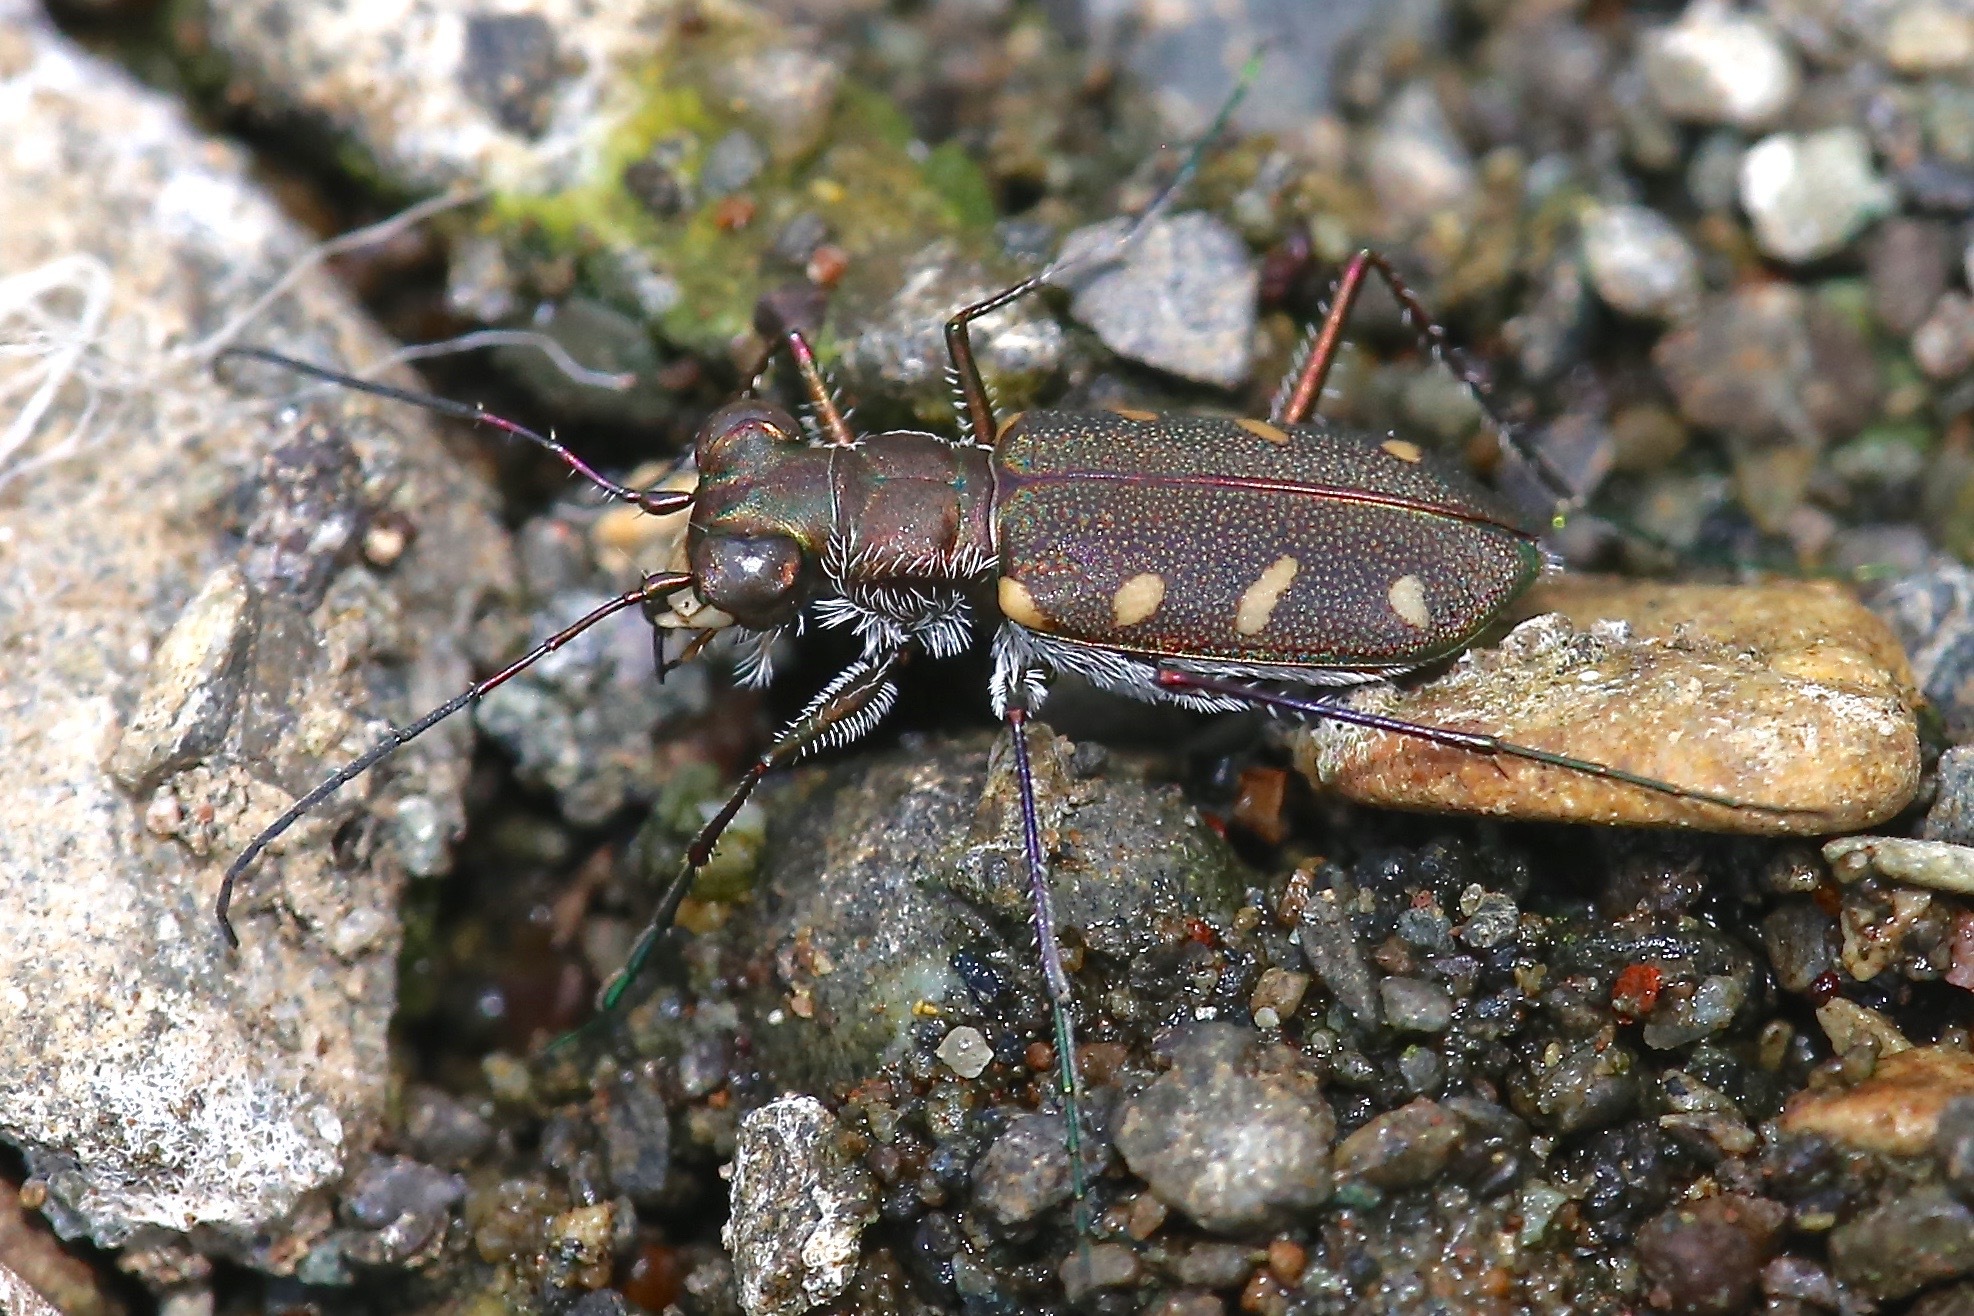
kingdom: Animalia
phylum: Arthropoda
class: Insecta
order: Coleoptera
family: Carabidae
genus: Cicindela
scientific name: Cicindela favergeri
